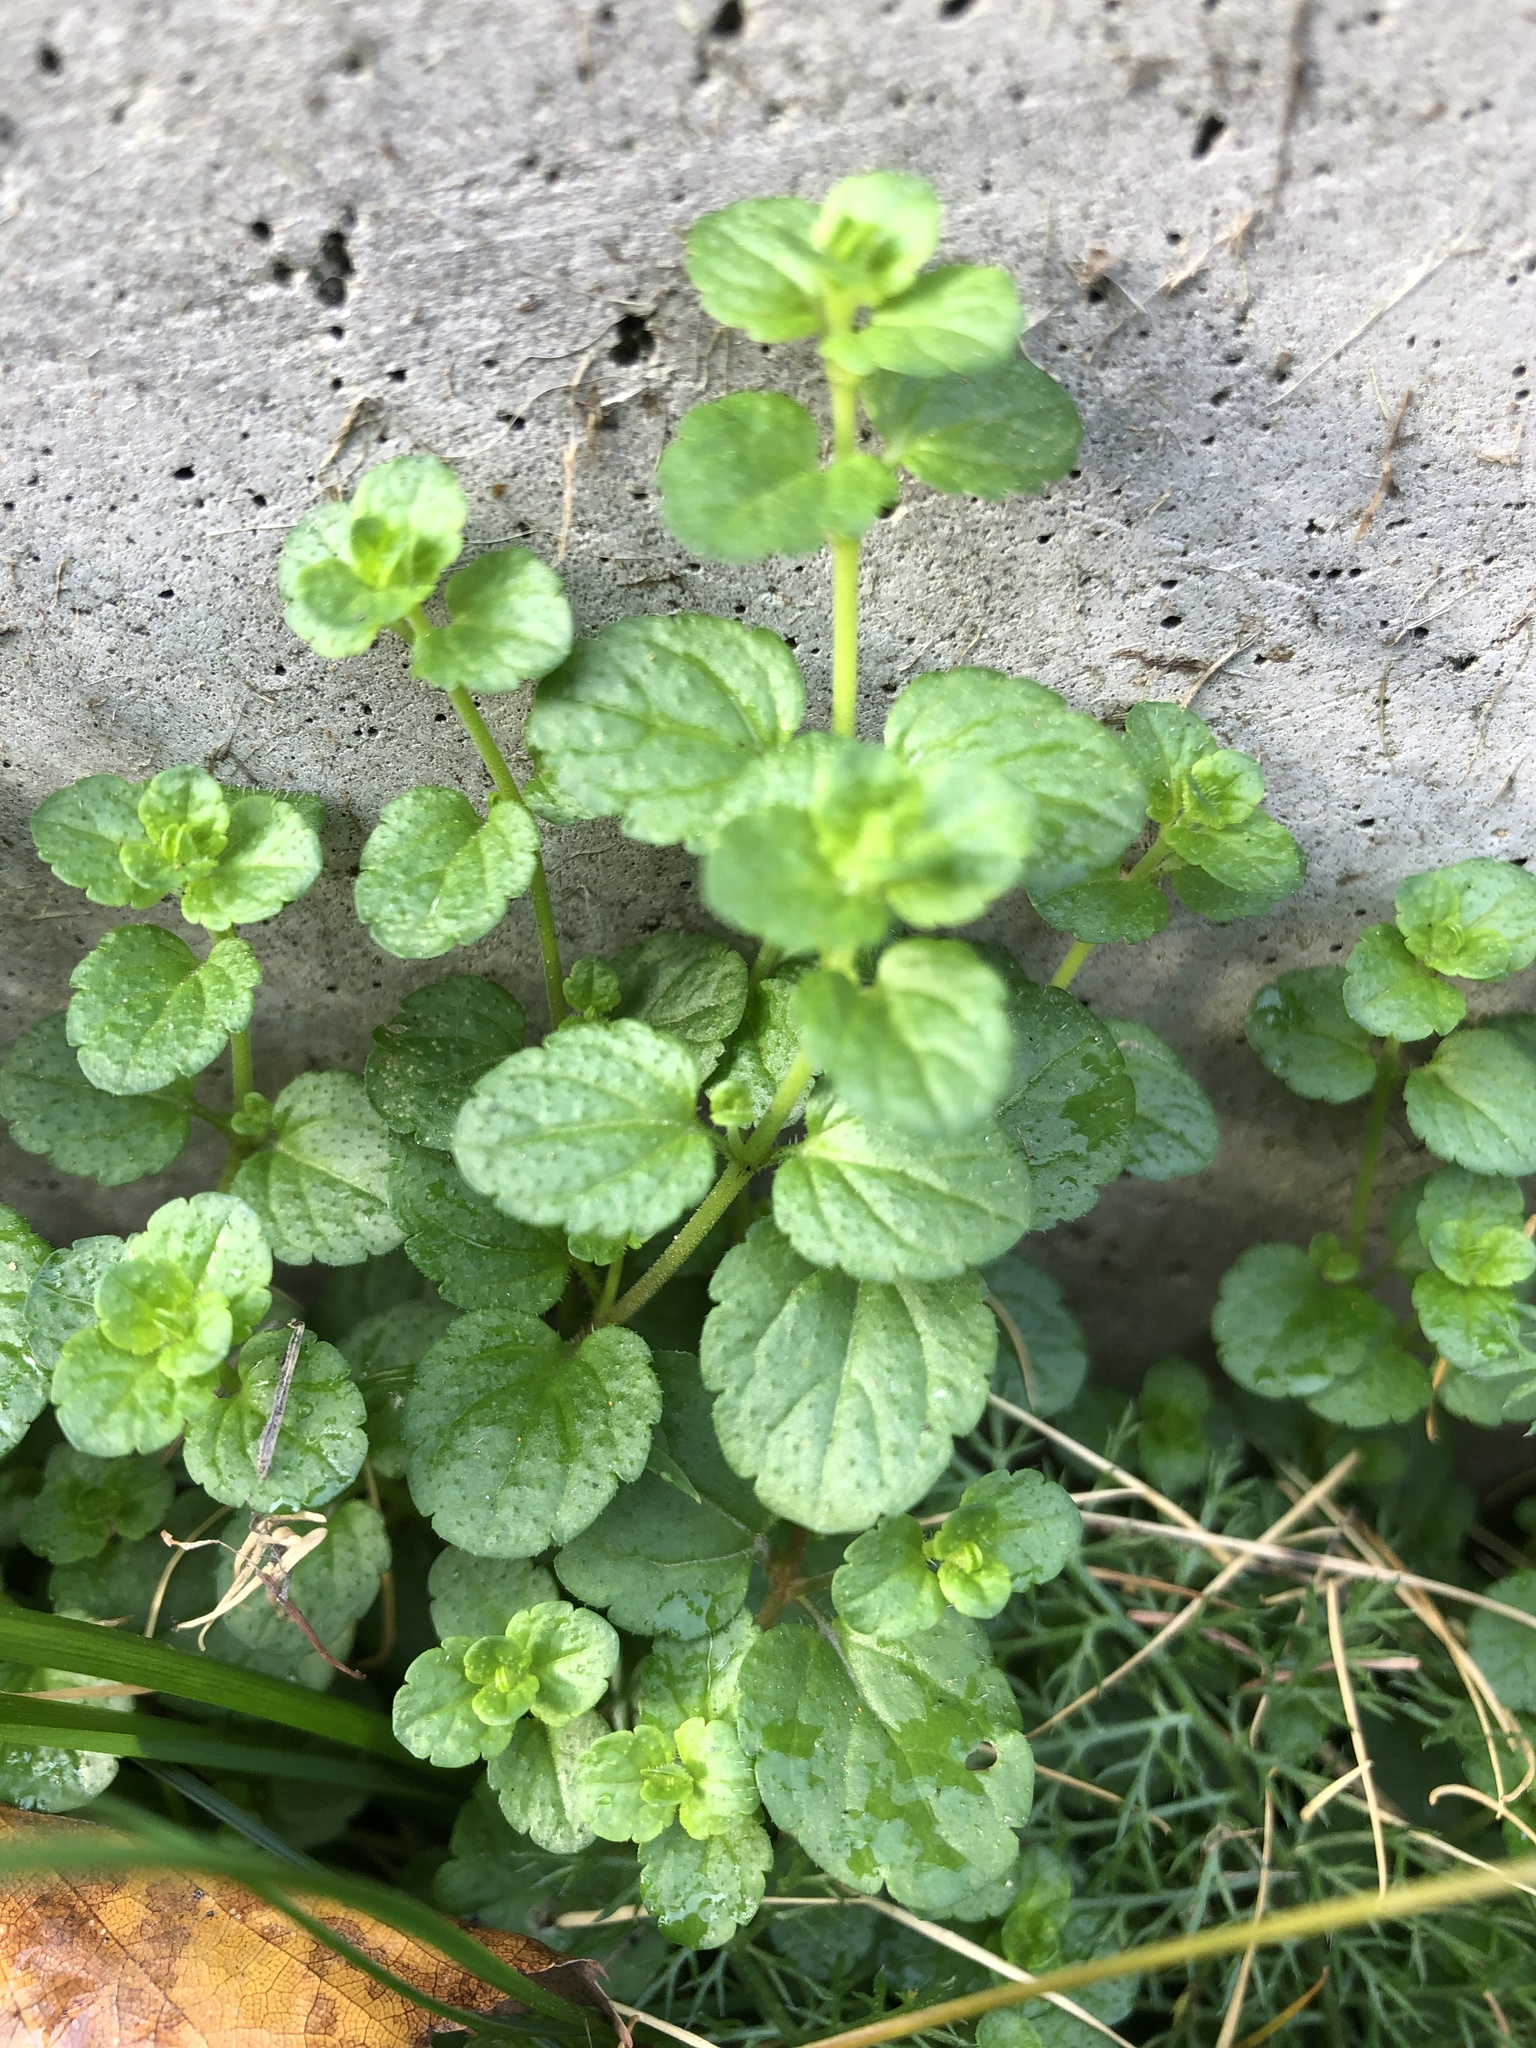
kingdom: Plantae
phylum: Tracheophyta
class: Magnoliopsida
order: Lamiales
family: Plantaginaceae
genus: Veronica
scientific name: Veronica filiformis
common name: Slender speedwell
